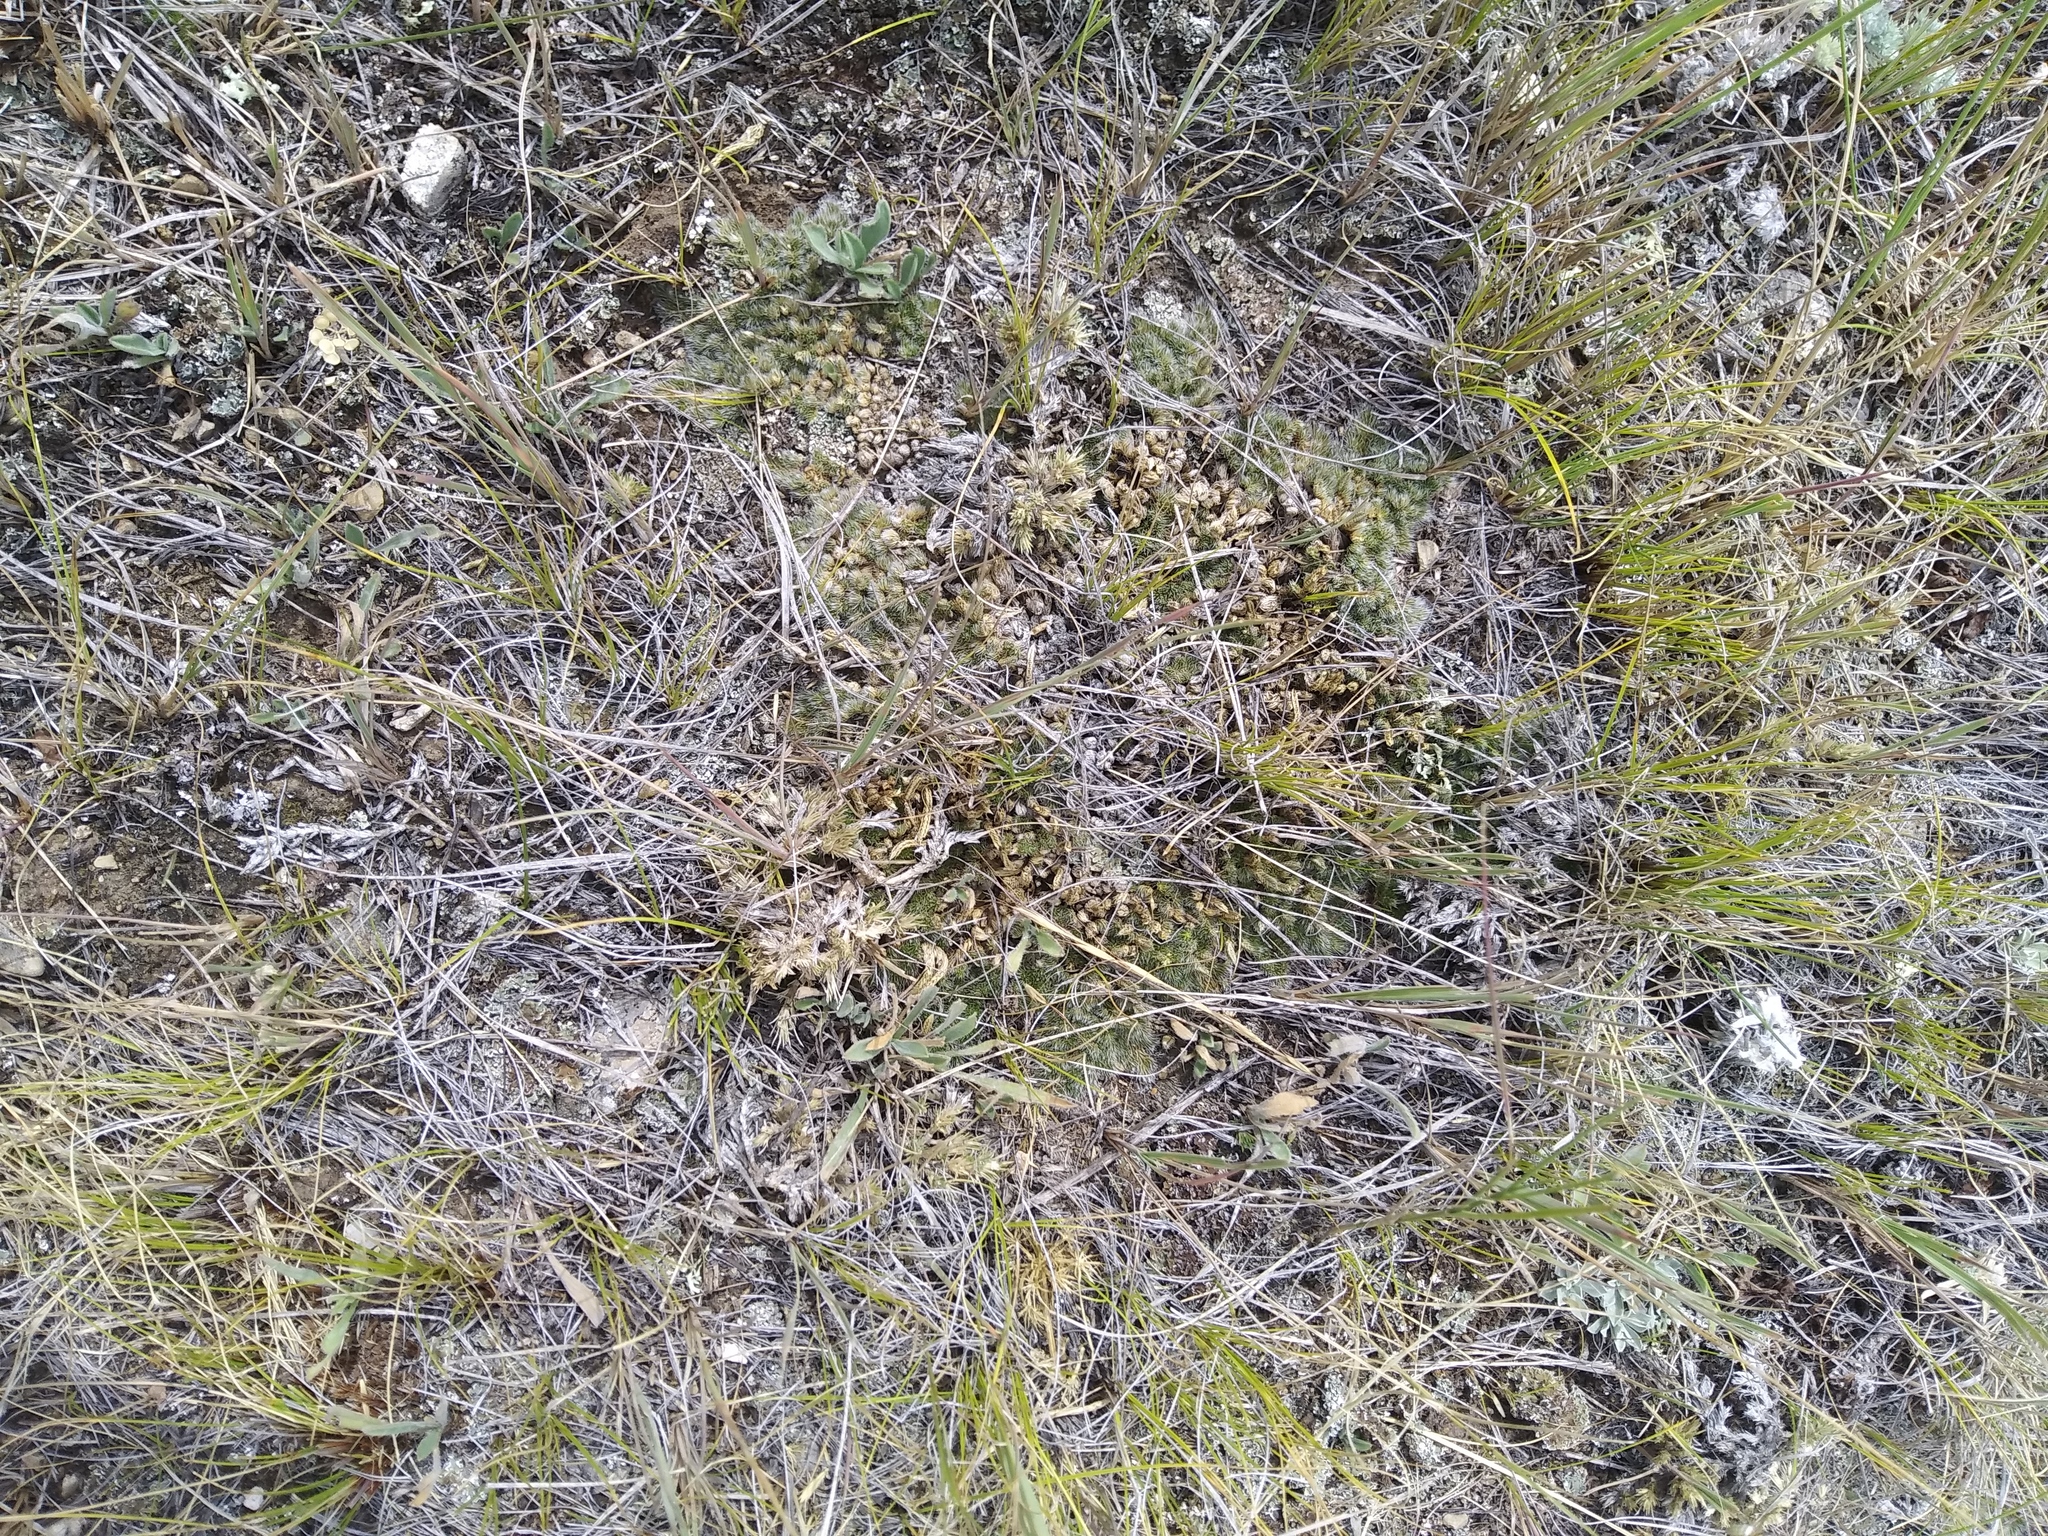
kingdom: Plantae
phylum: Tracheophyta
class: Lycopodiopsida
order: Selaginellales
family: Selaginellaceae
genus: Selaginella
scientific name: Selaginella densa
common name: Mountain spike-moss
